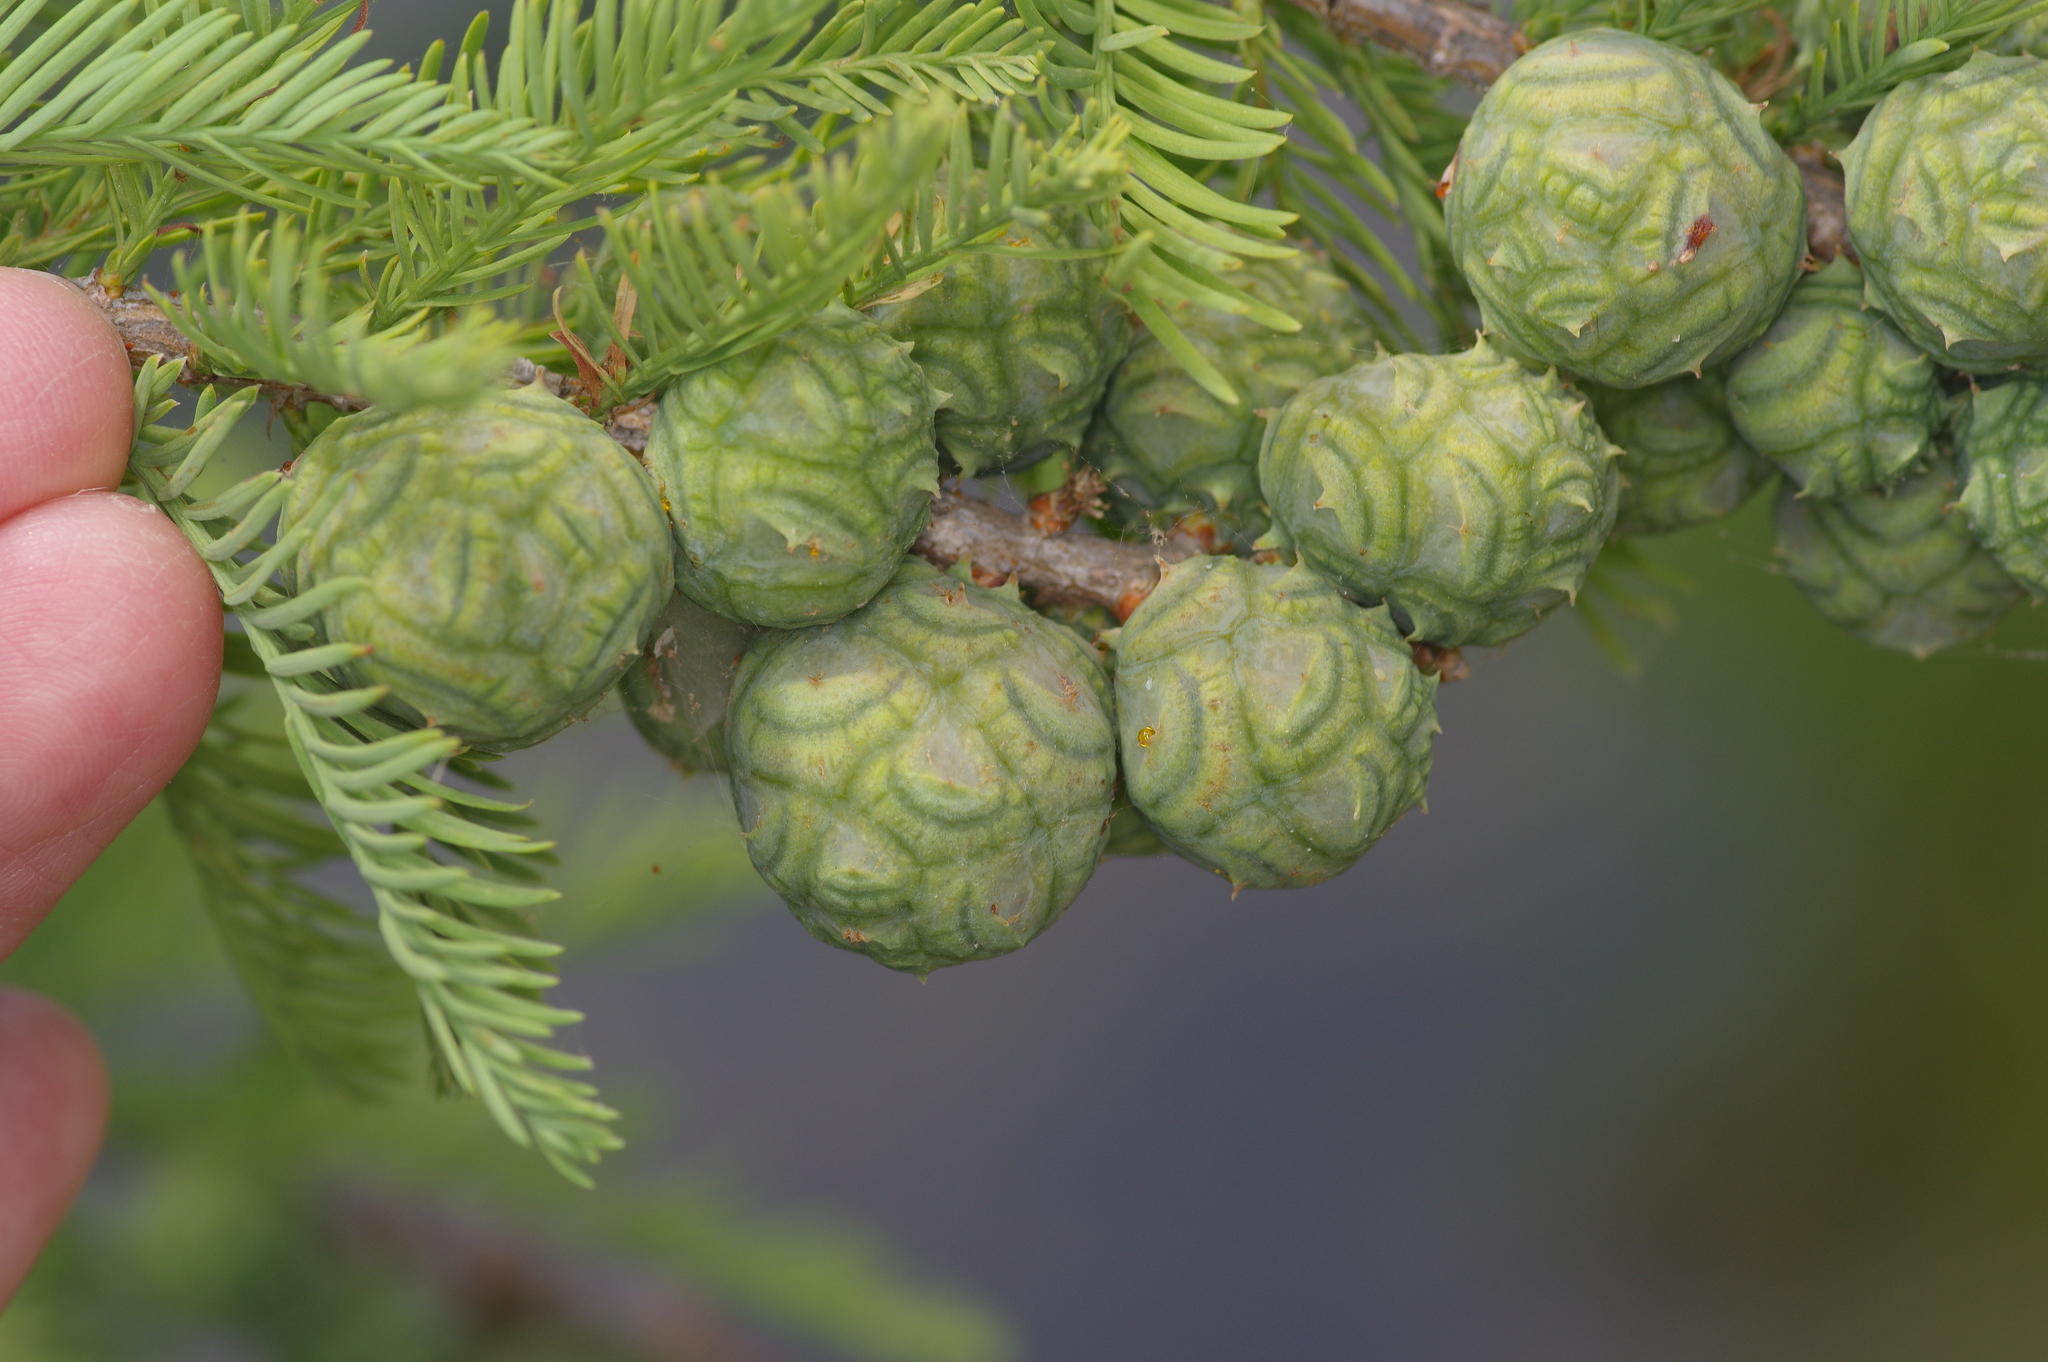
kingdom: Plantae
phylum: Tracheophyta
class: Pinopsida
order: Pinales
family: Cupressaceae
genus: Taxodium
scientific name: Taxodium distichum
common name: Bald cypress
